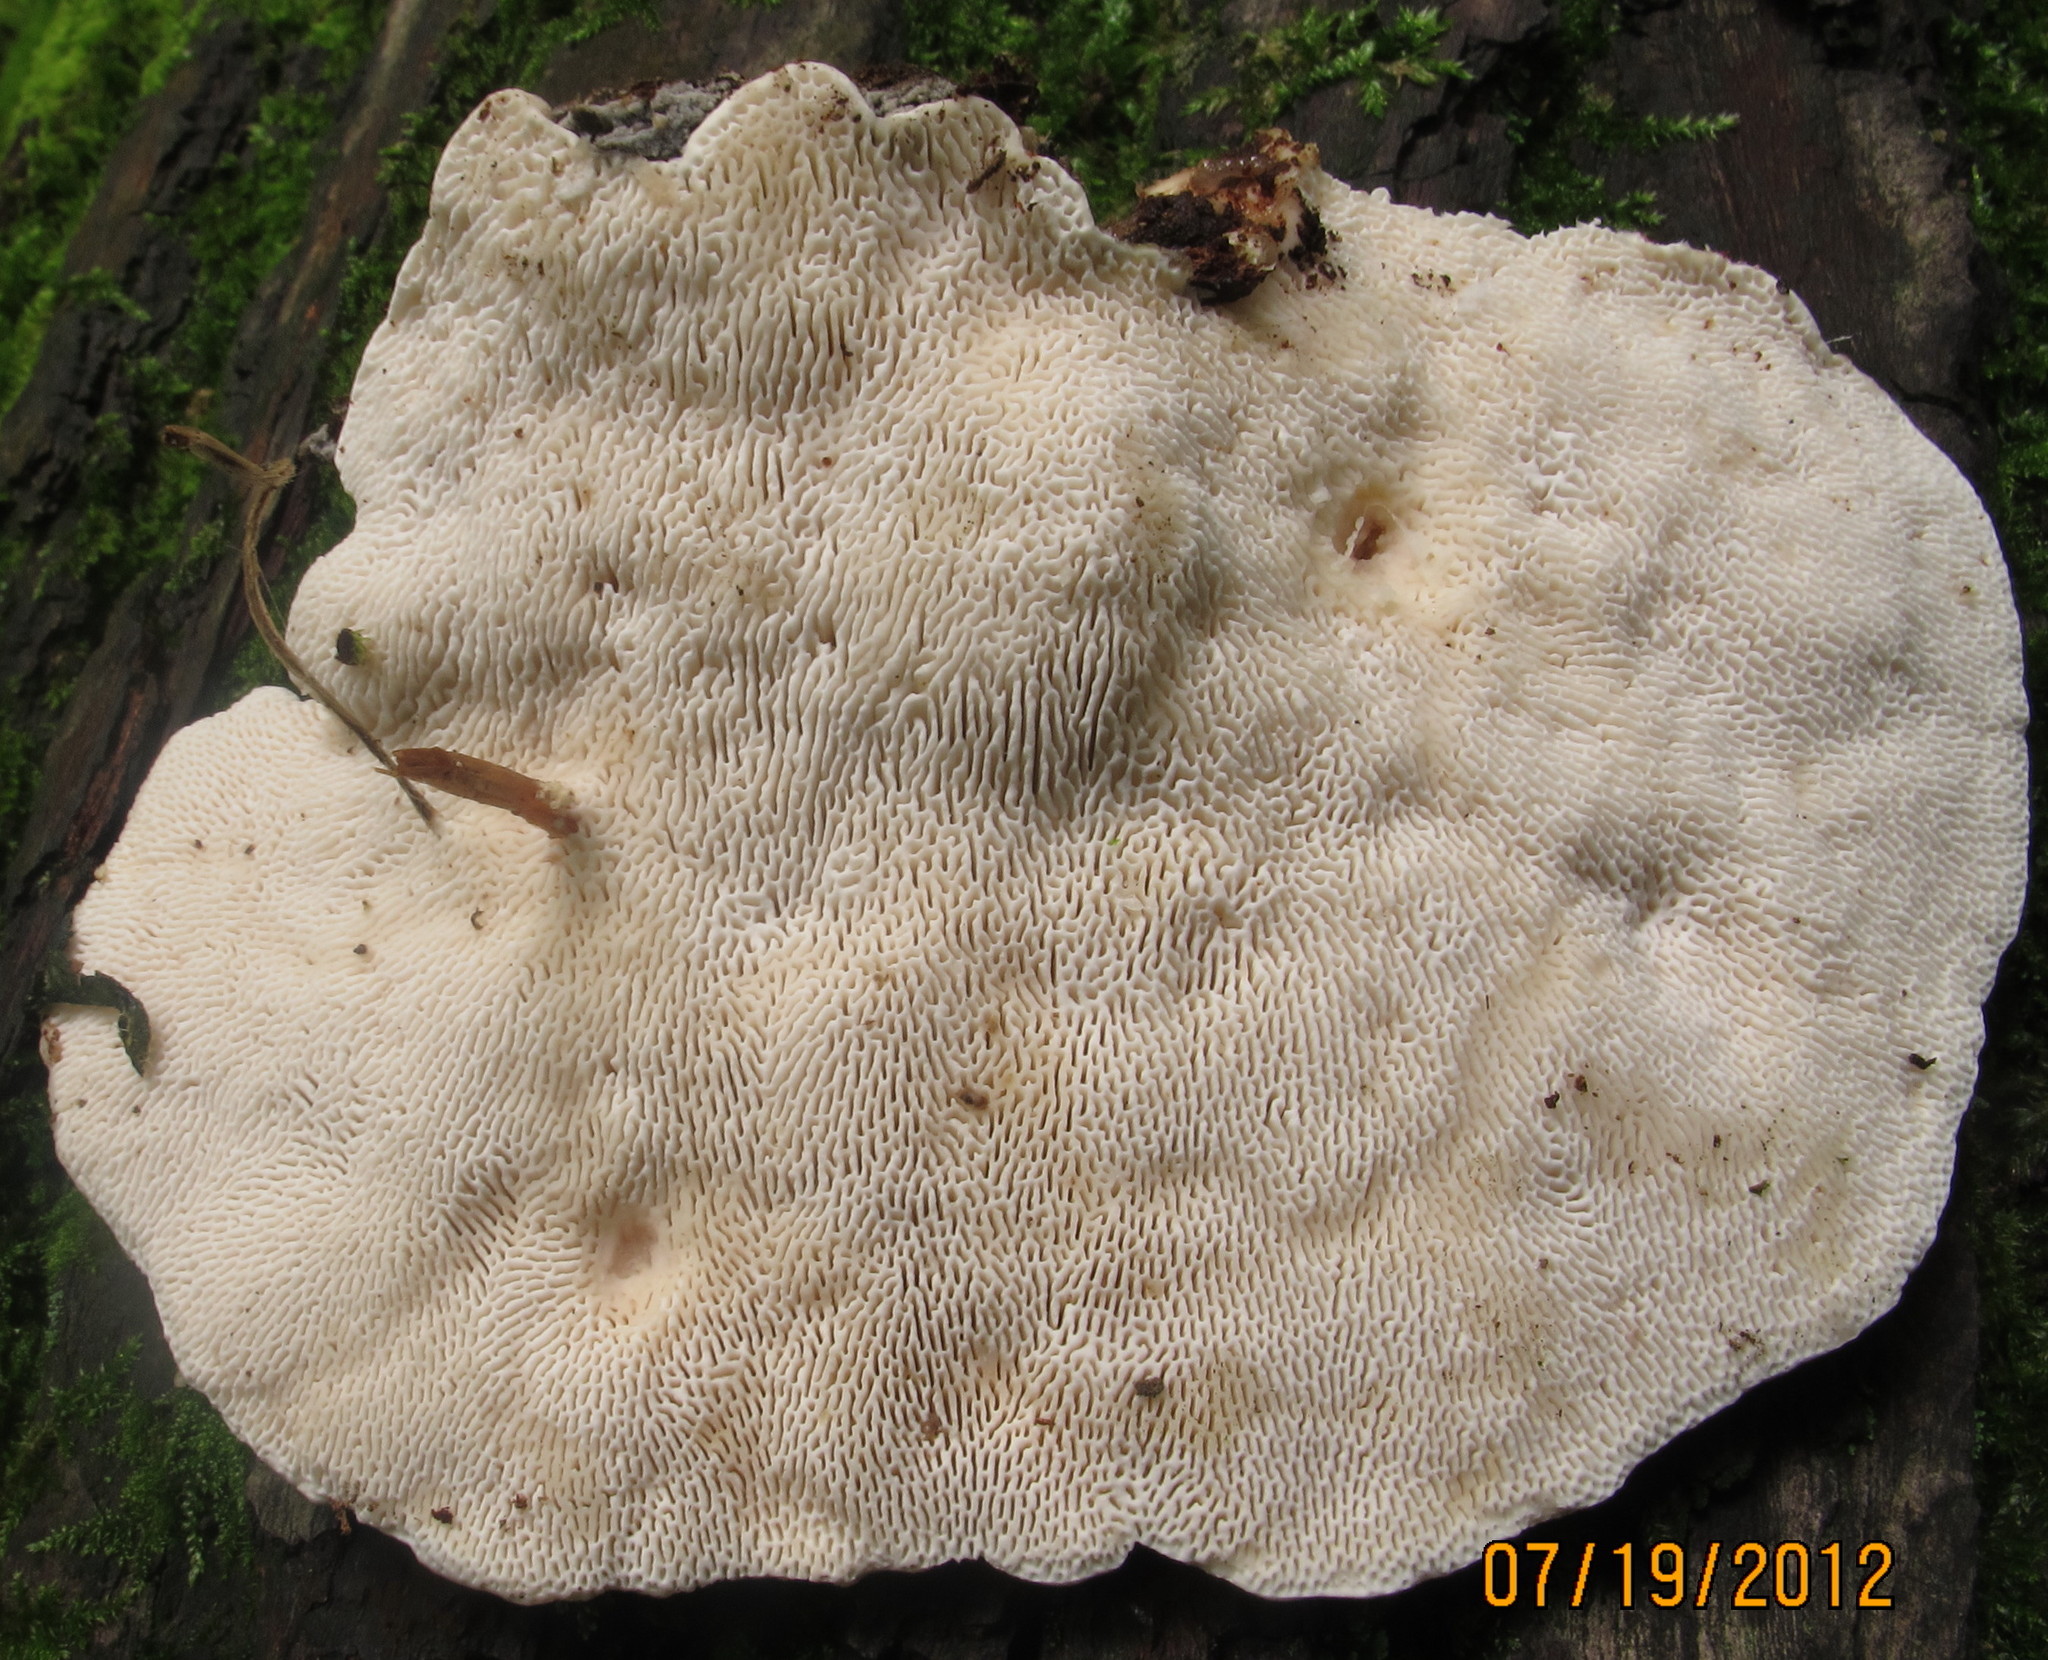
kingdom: Fungi
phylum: Basidiomycota
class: Agaricomycetes
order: Polyporales
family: Polyporaceae
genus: Trametes
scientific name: Trametes gibbosa
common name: Lumpy bracket
